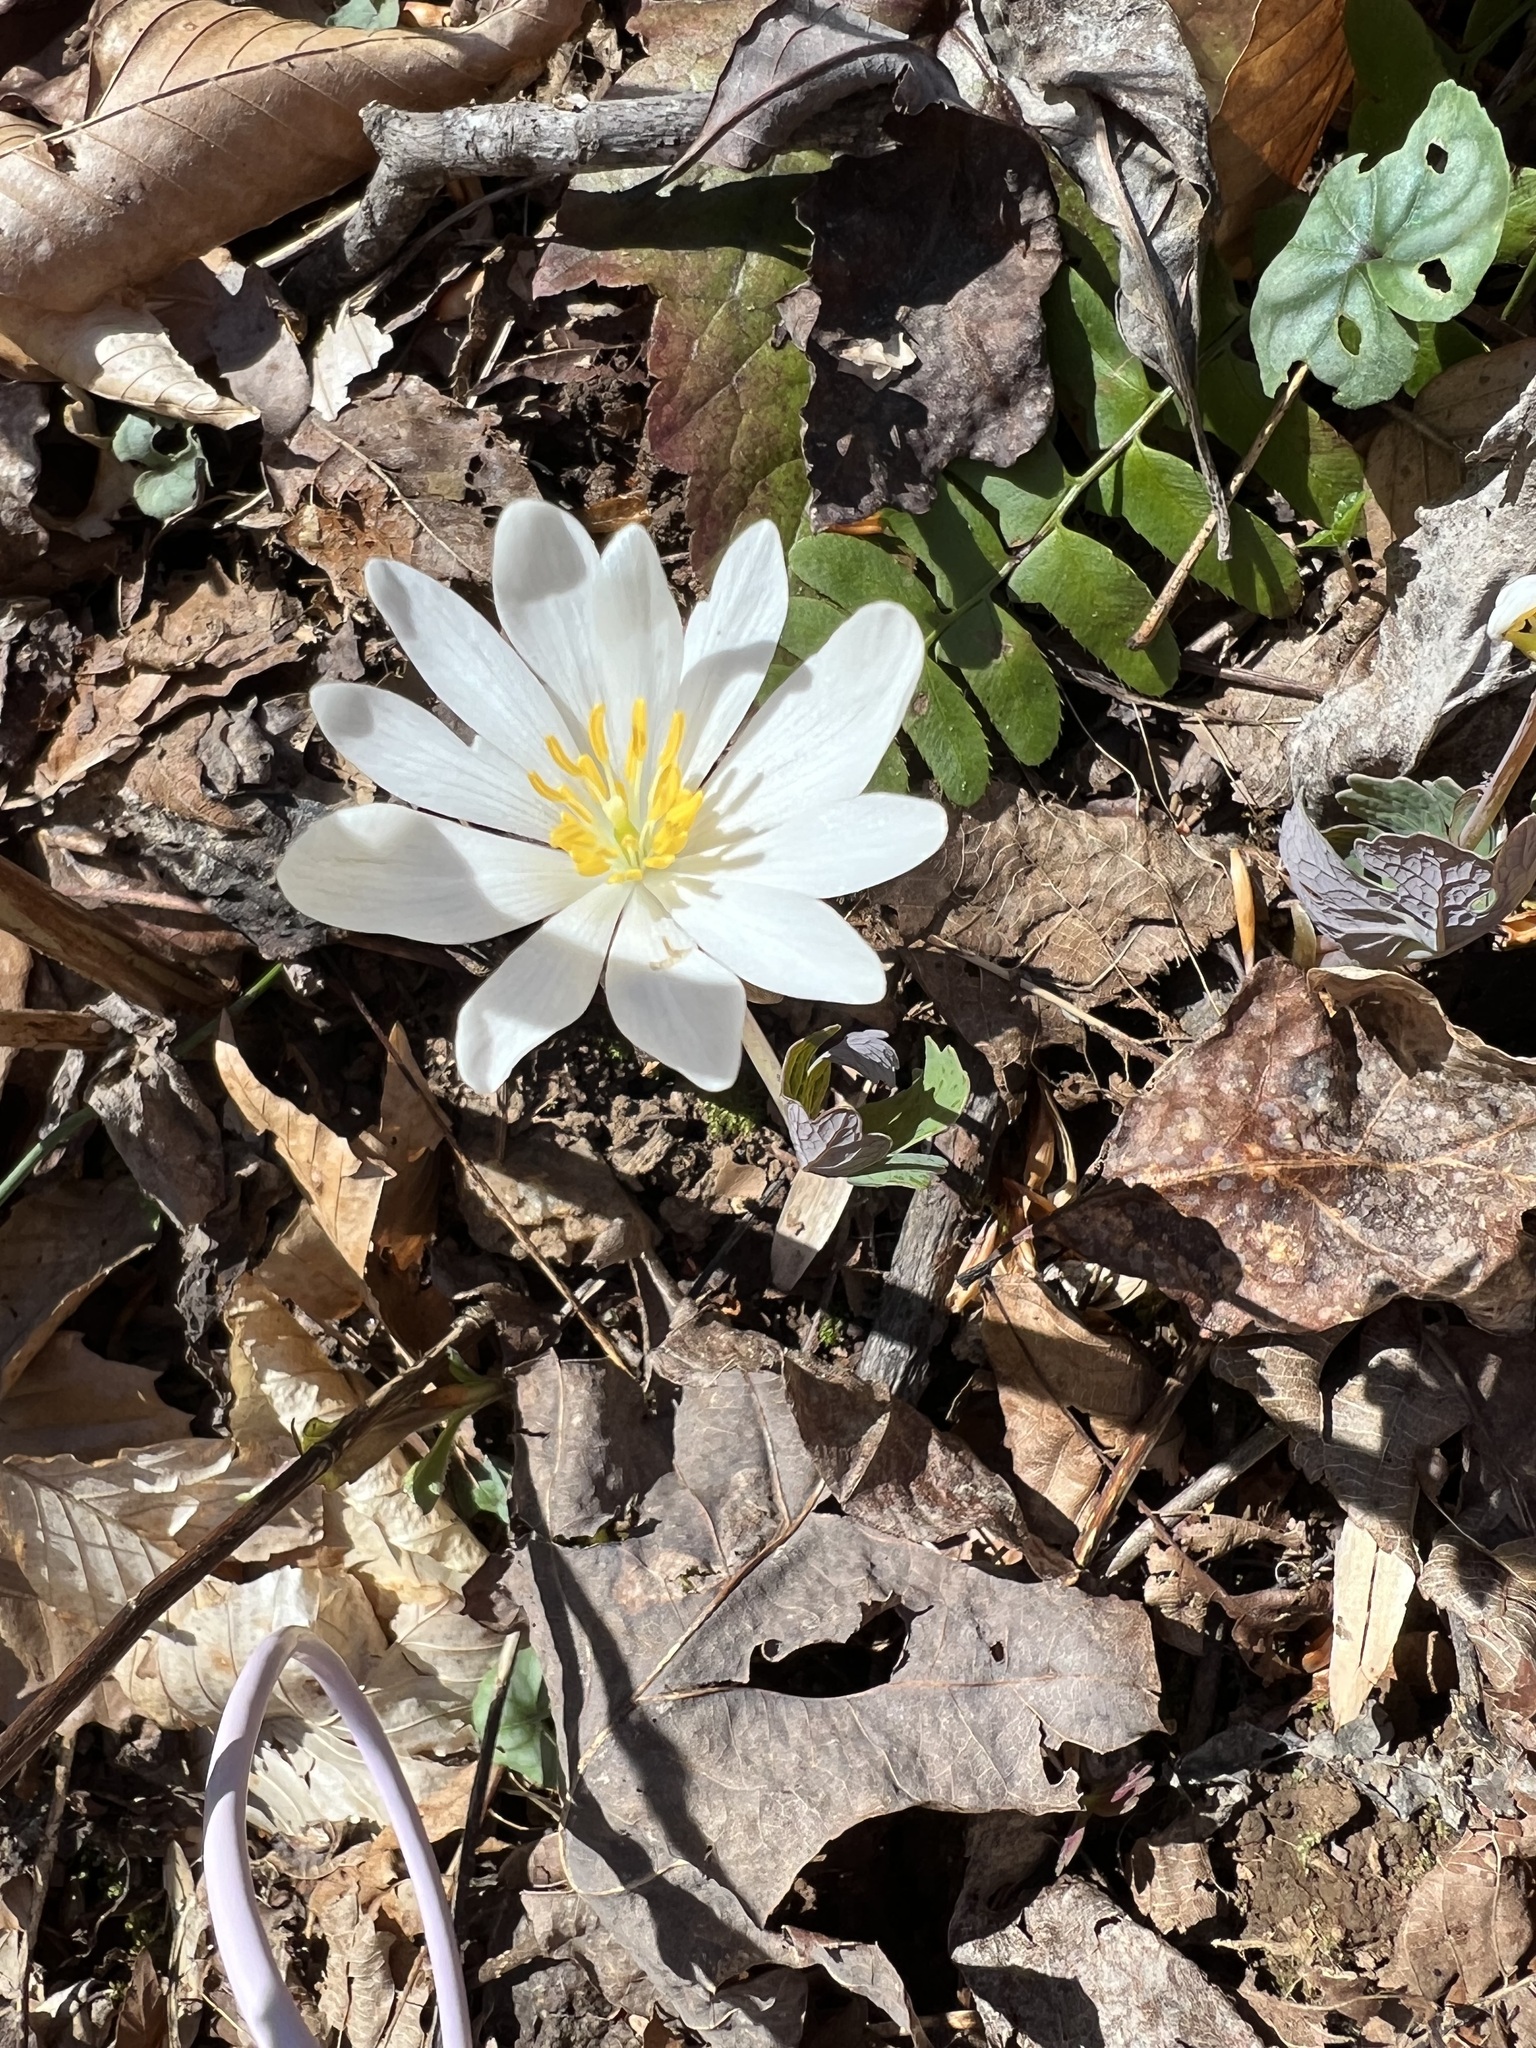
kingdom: Plantae
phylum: Tracheophyta
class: Magnoliopsida
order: Ranunculales
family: Papaveraceae
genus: Sanguinaria
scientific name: Sanguinaria canadensis
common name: Bloodroot
